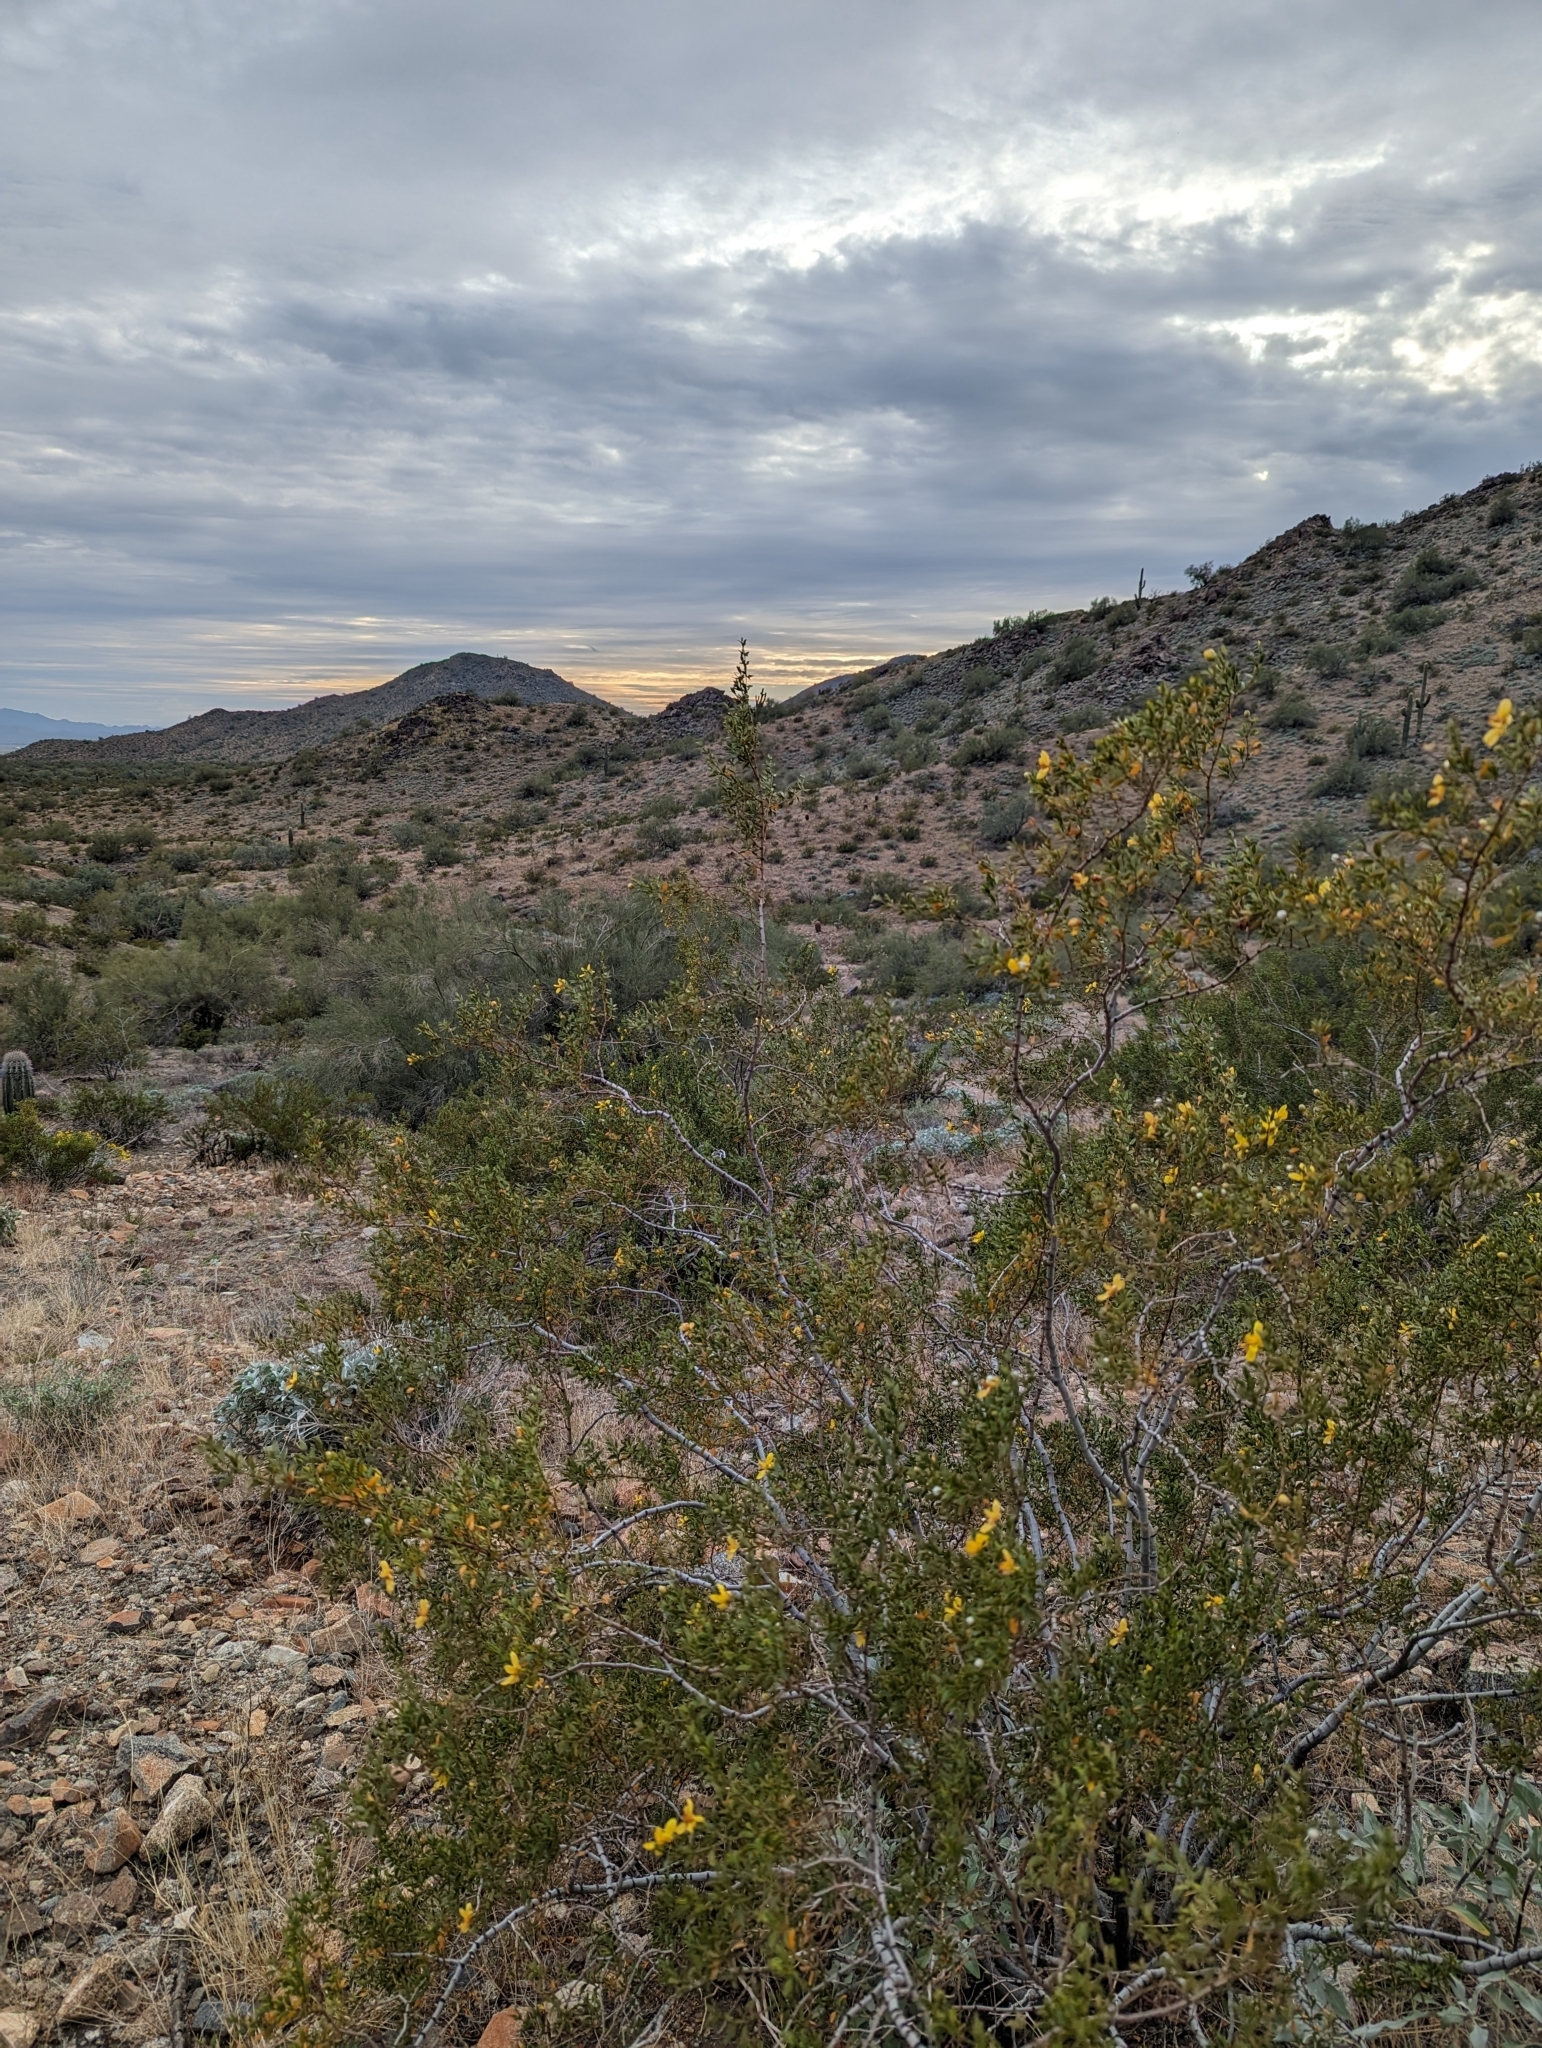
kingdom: Plantae
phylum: Tracheophyta
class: Magnoliopsida
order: Zygophyllales
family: Zygophyllaceae
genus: Larrea
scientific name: Larrea tridentata
